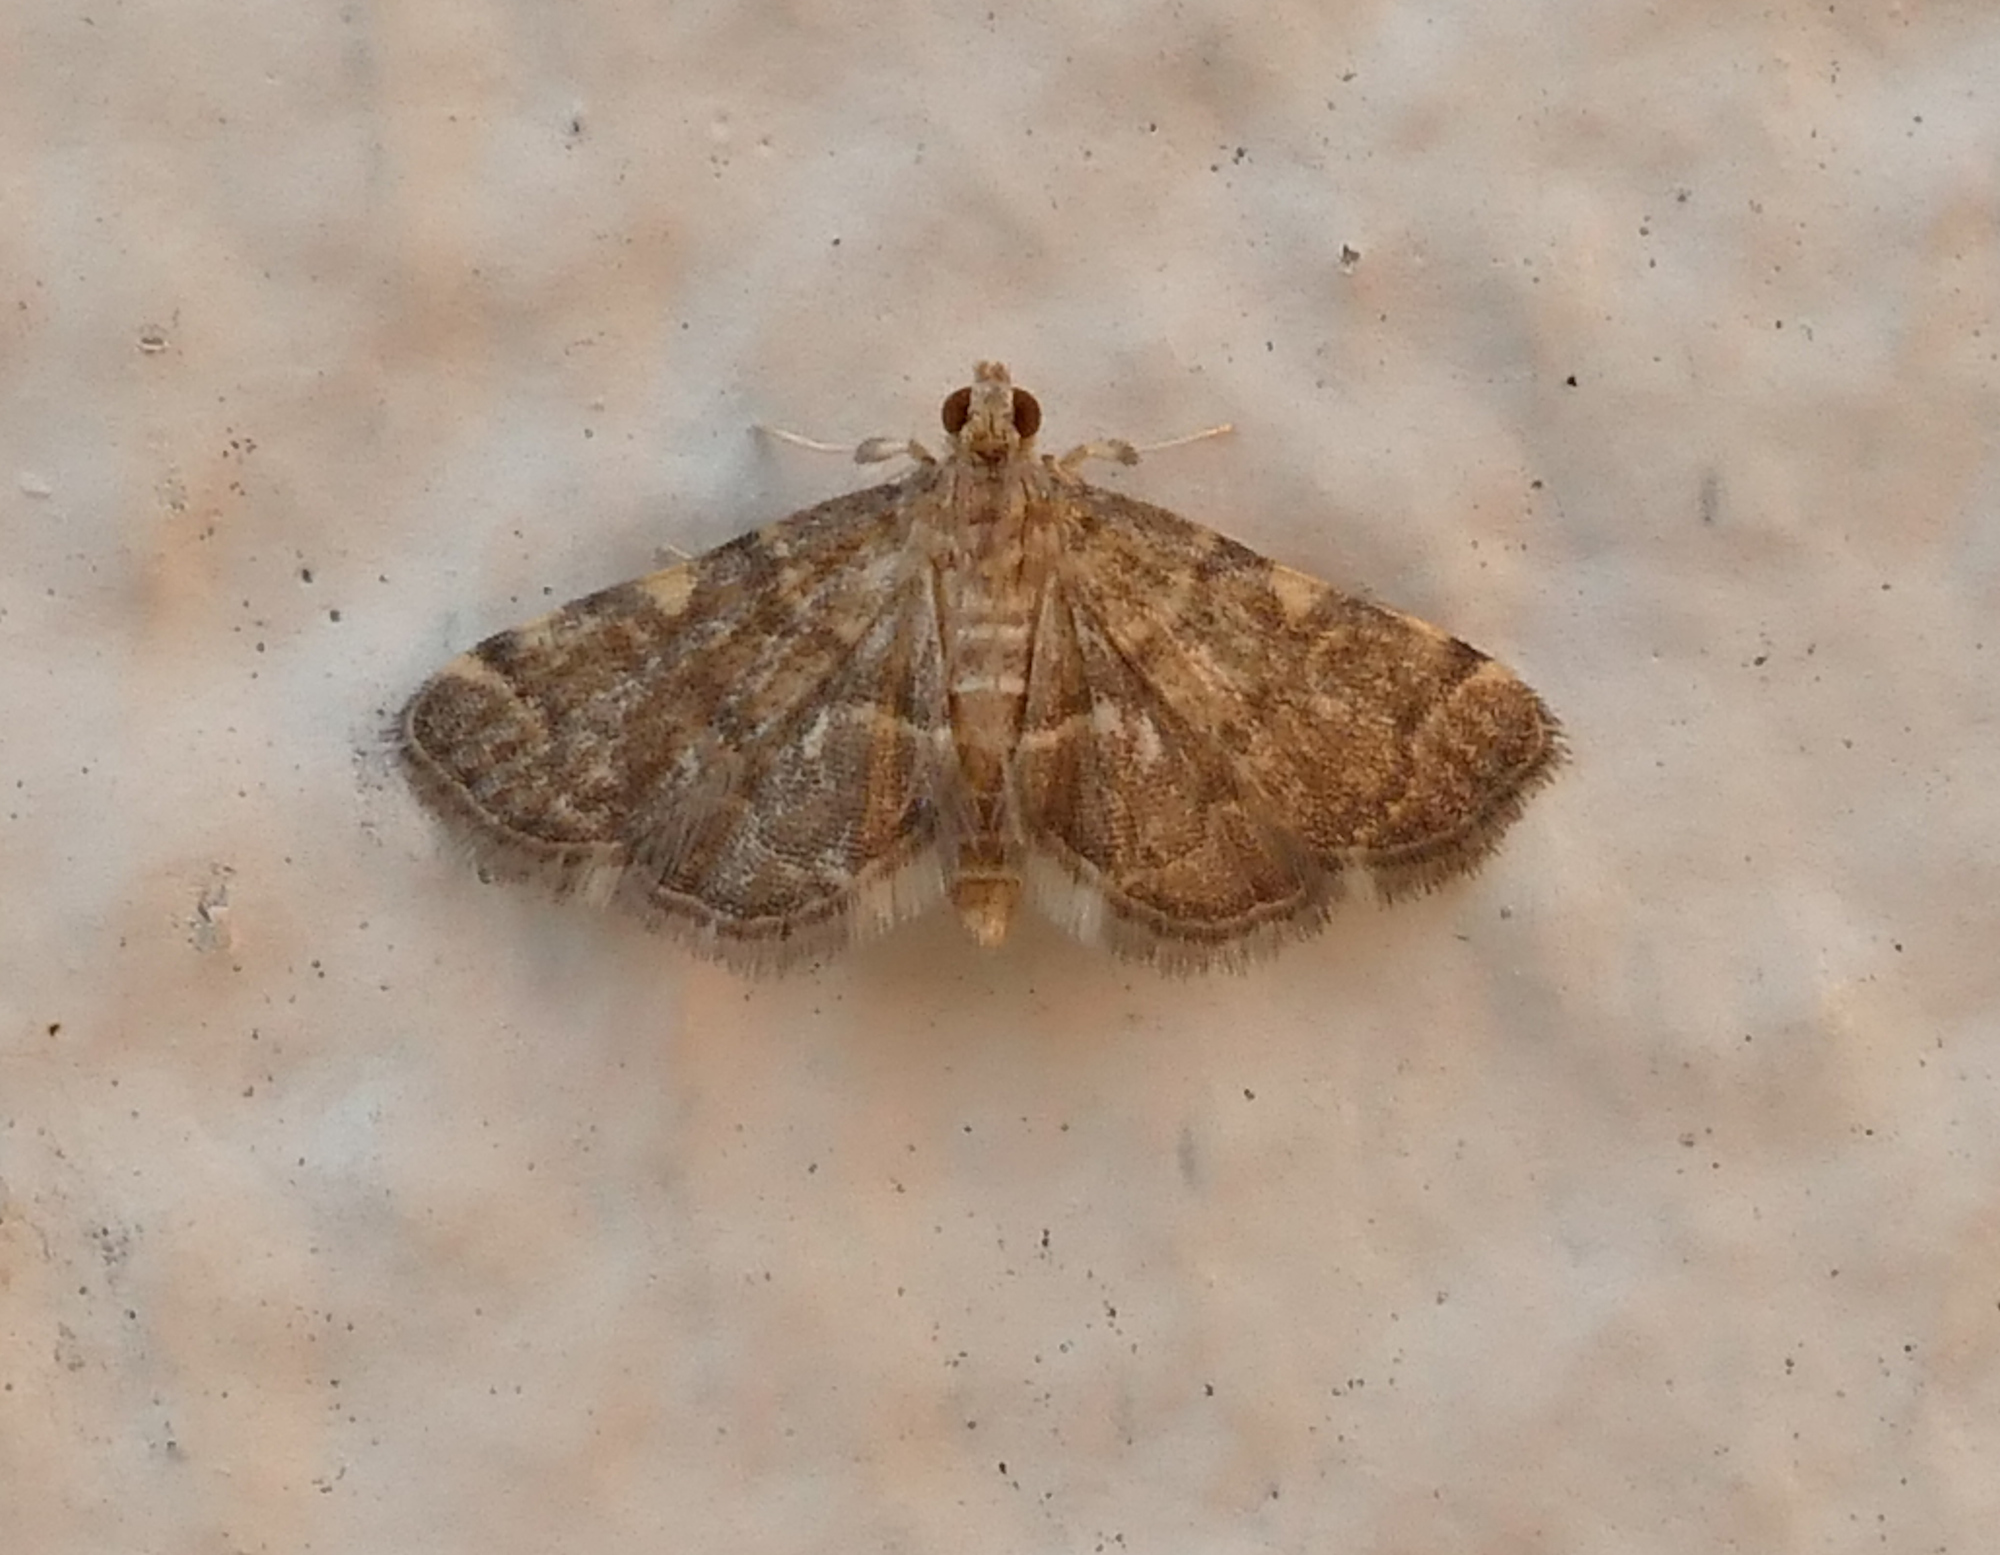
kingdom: Animalia
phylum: Arthropoda
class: Insecta
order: Lepidoptera
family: Crambidae
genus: Anageshna
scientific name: Anageshna primordialis
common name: Yellow-spotted webworm moth
